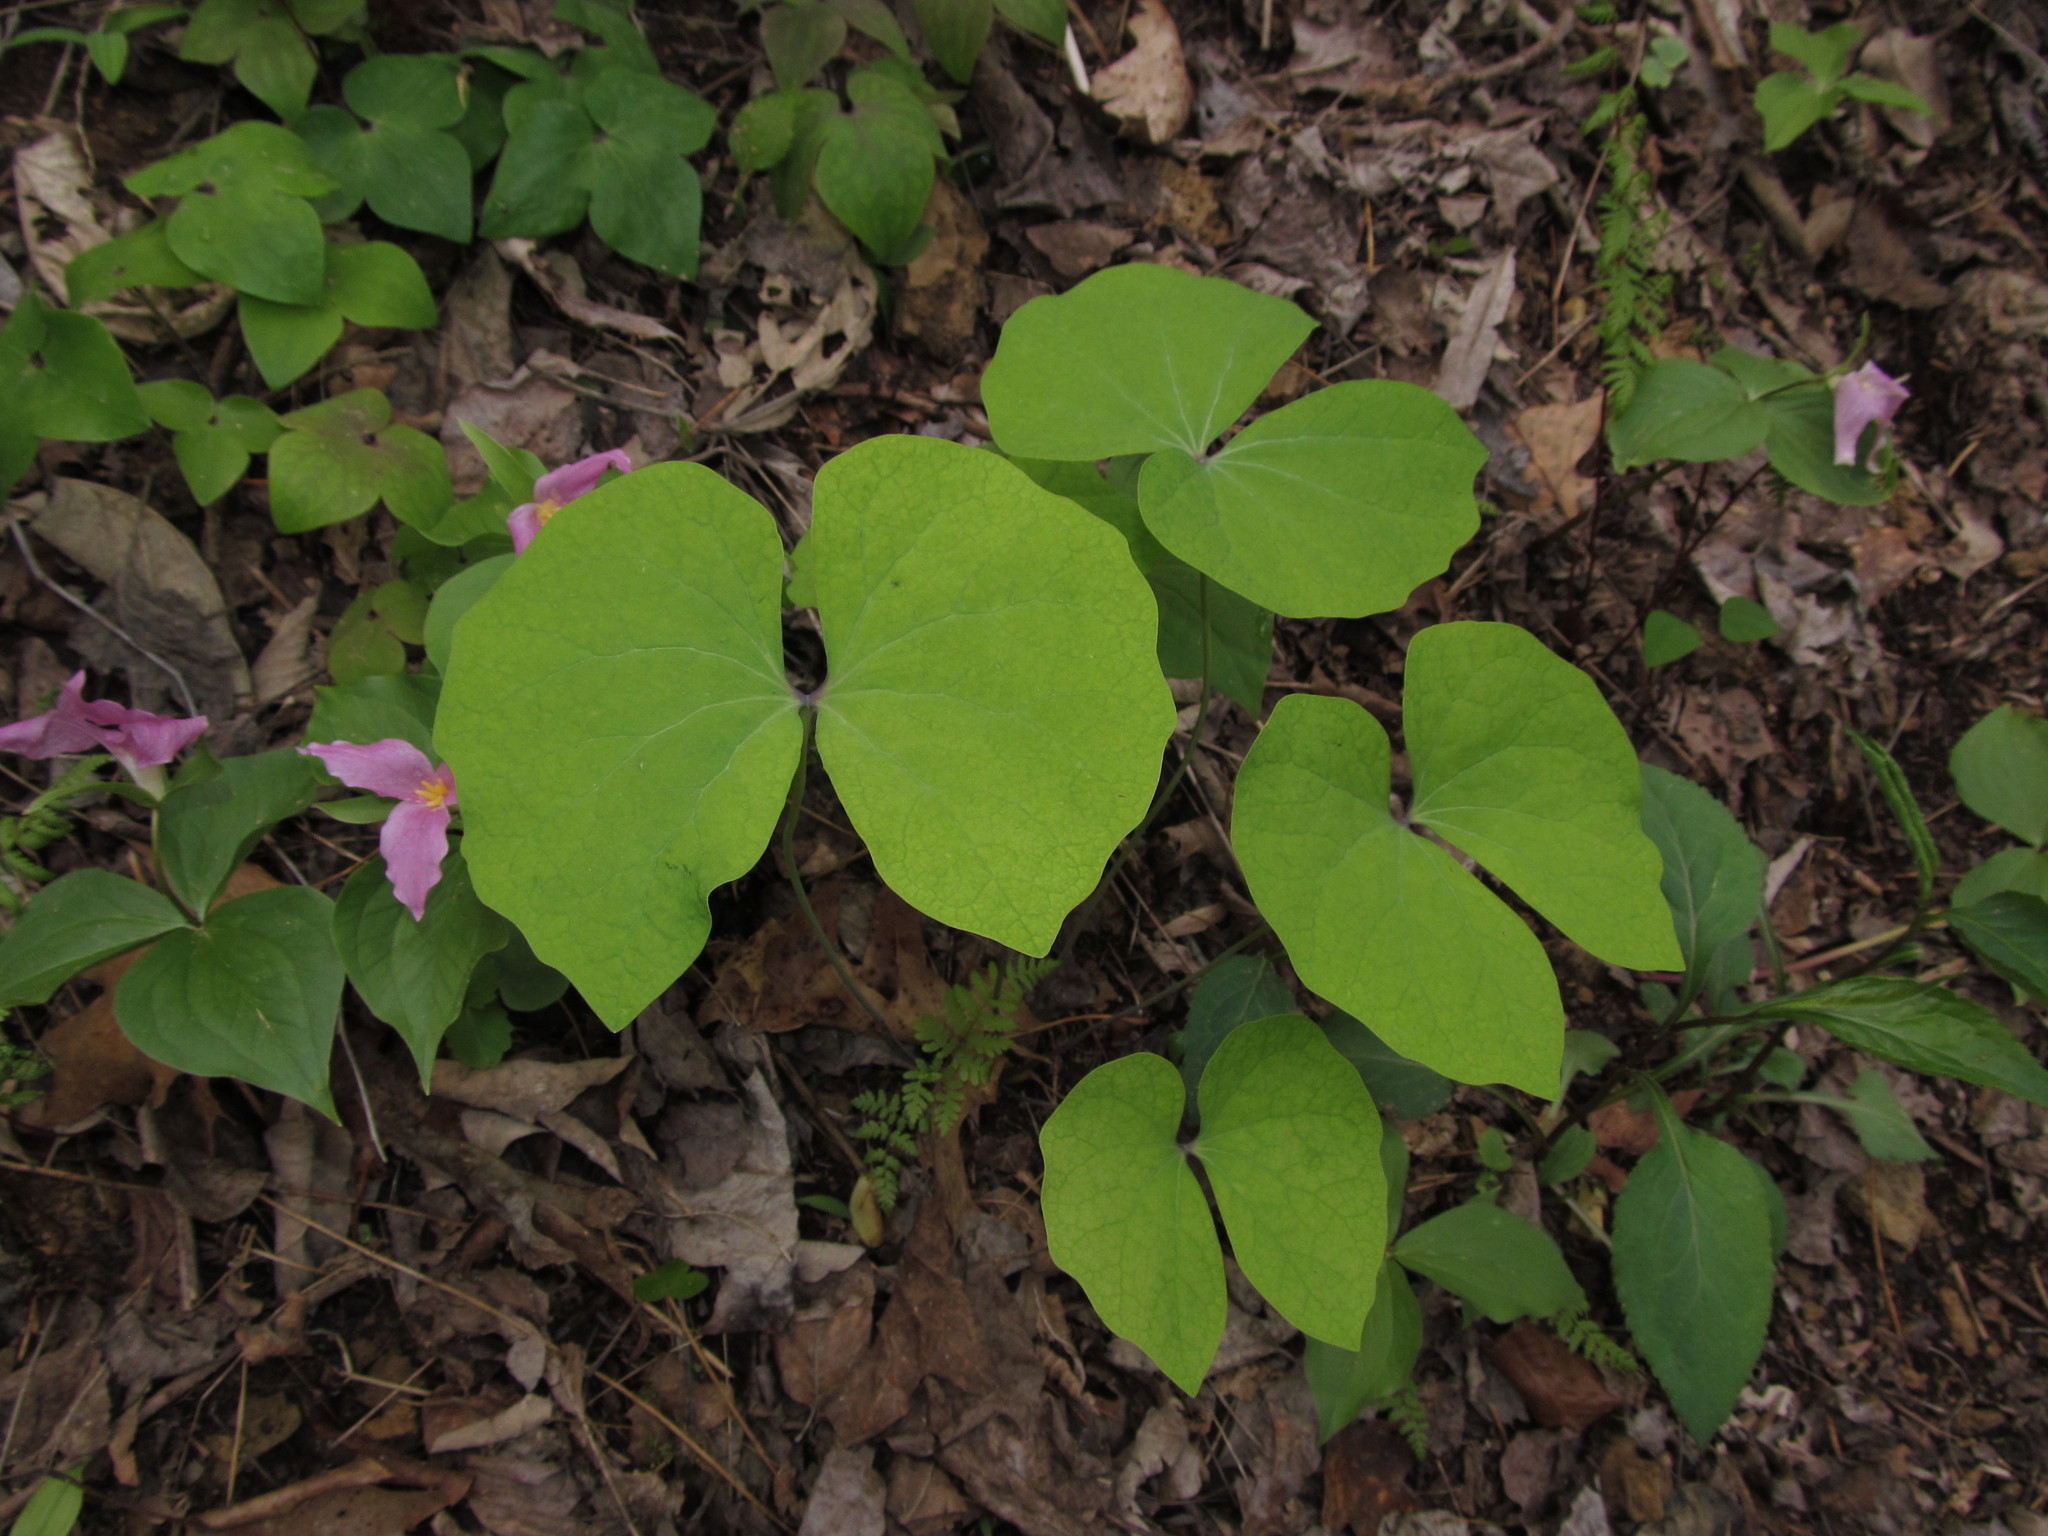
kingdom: Plantae
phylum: Tracheophyta
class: Magnoliopsida
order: Ranunculales
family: Berberidaceae
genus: Jeffersonia
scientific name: Jeffersonia diphylla
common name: Rheumatism-root
